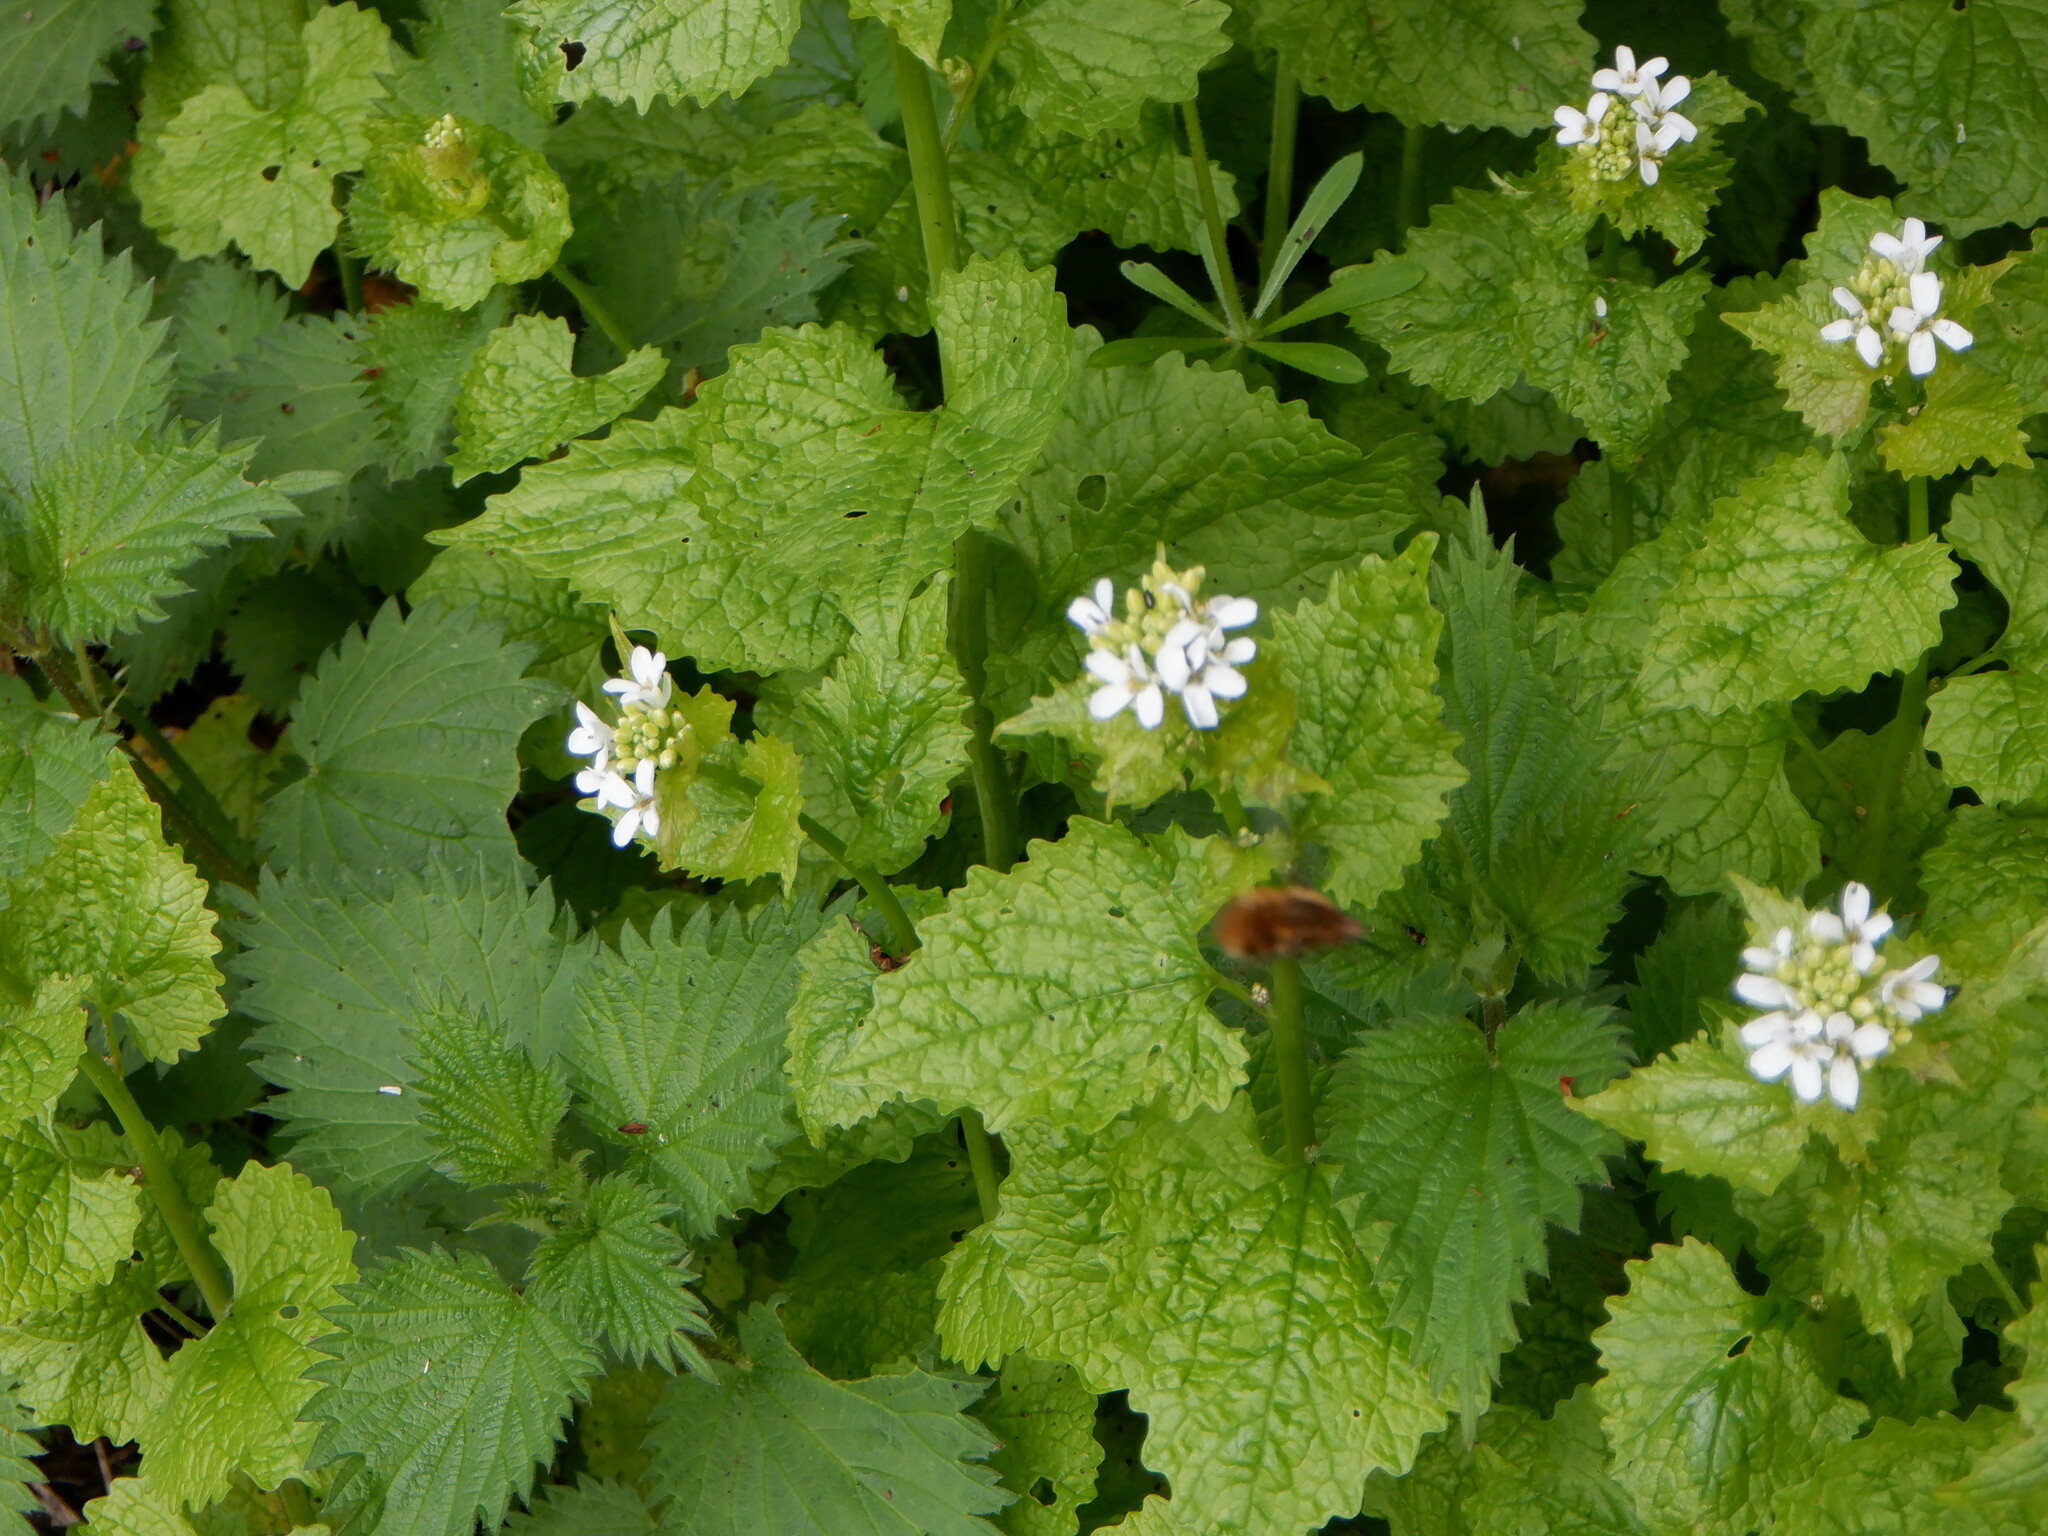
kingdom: Plantae
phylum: Tracheophyta
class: Magnoliopsida
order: Brassicales
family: Brassicaceae
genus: Alliaria
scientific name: Alliaria petiolata
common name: Garlic mustard
